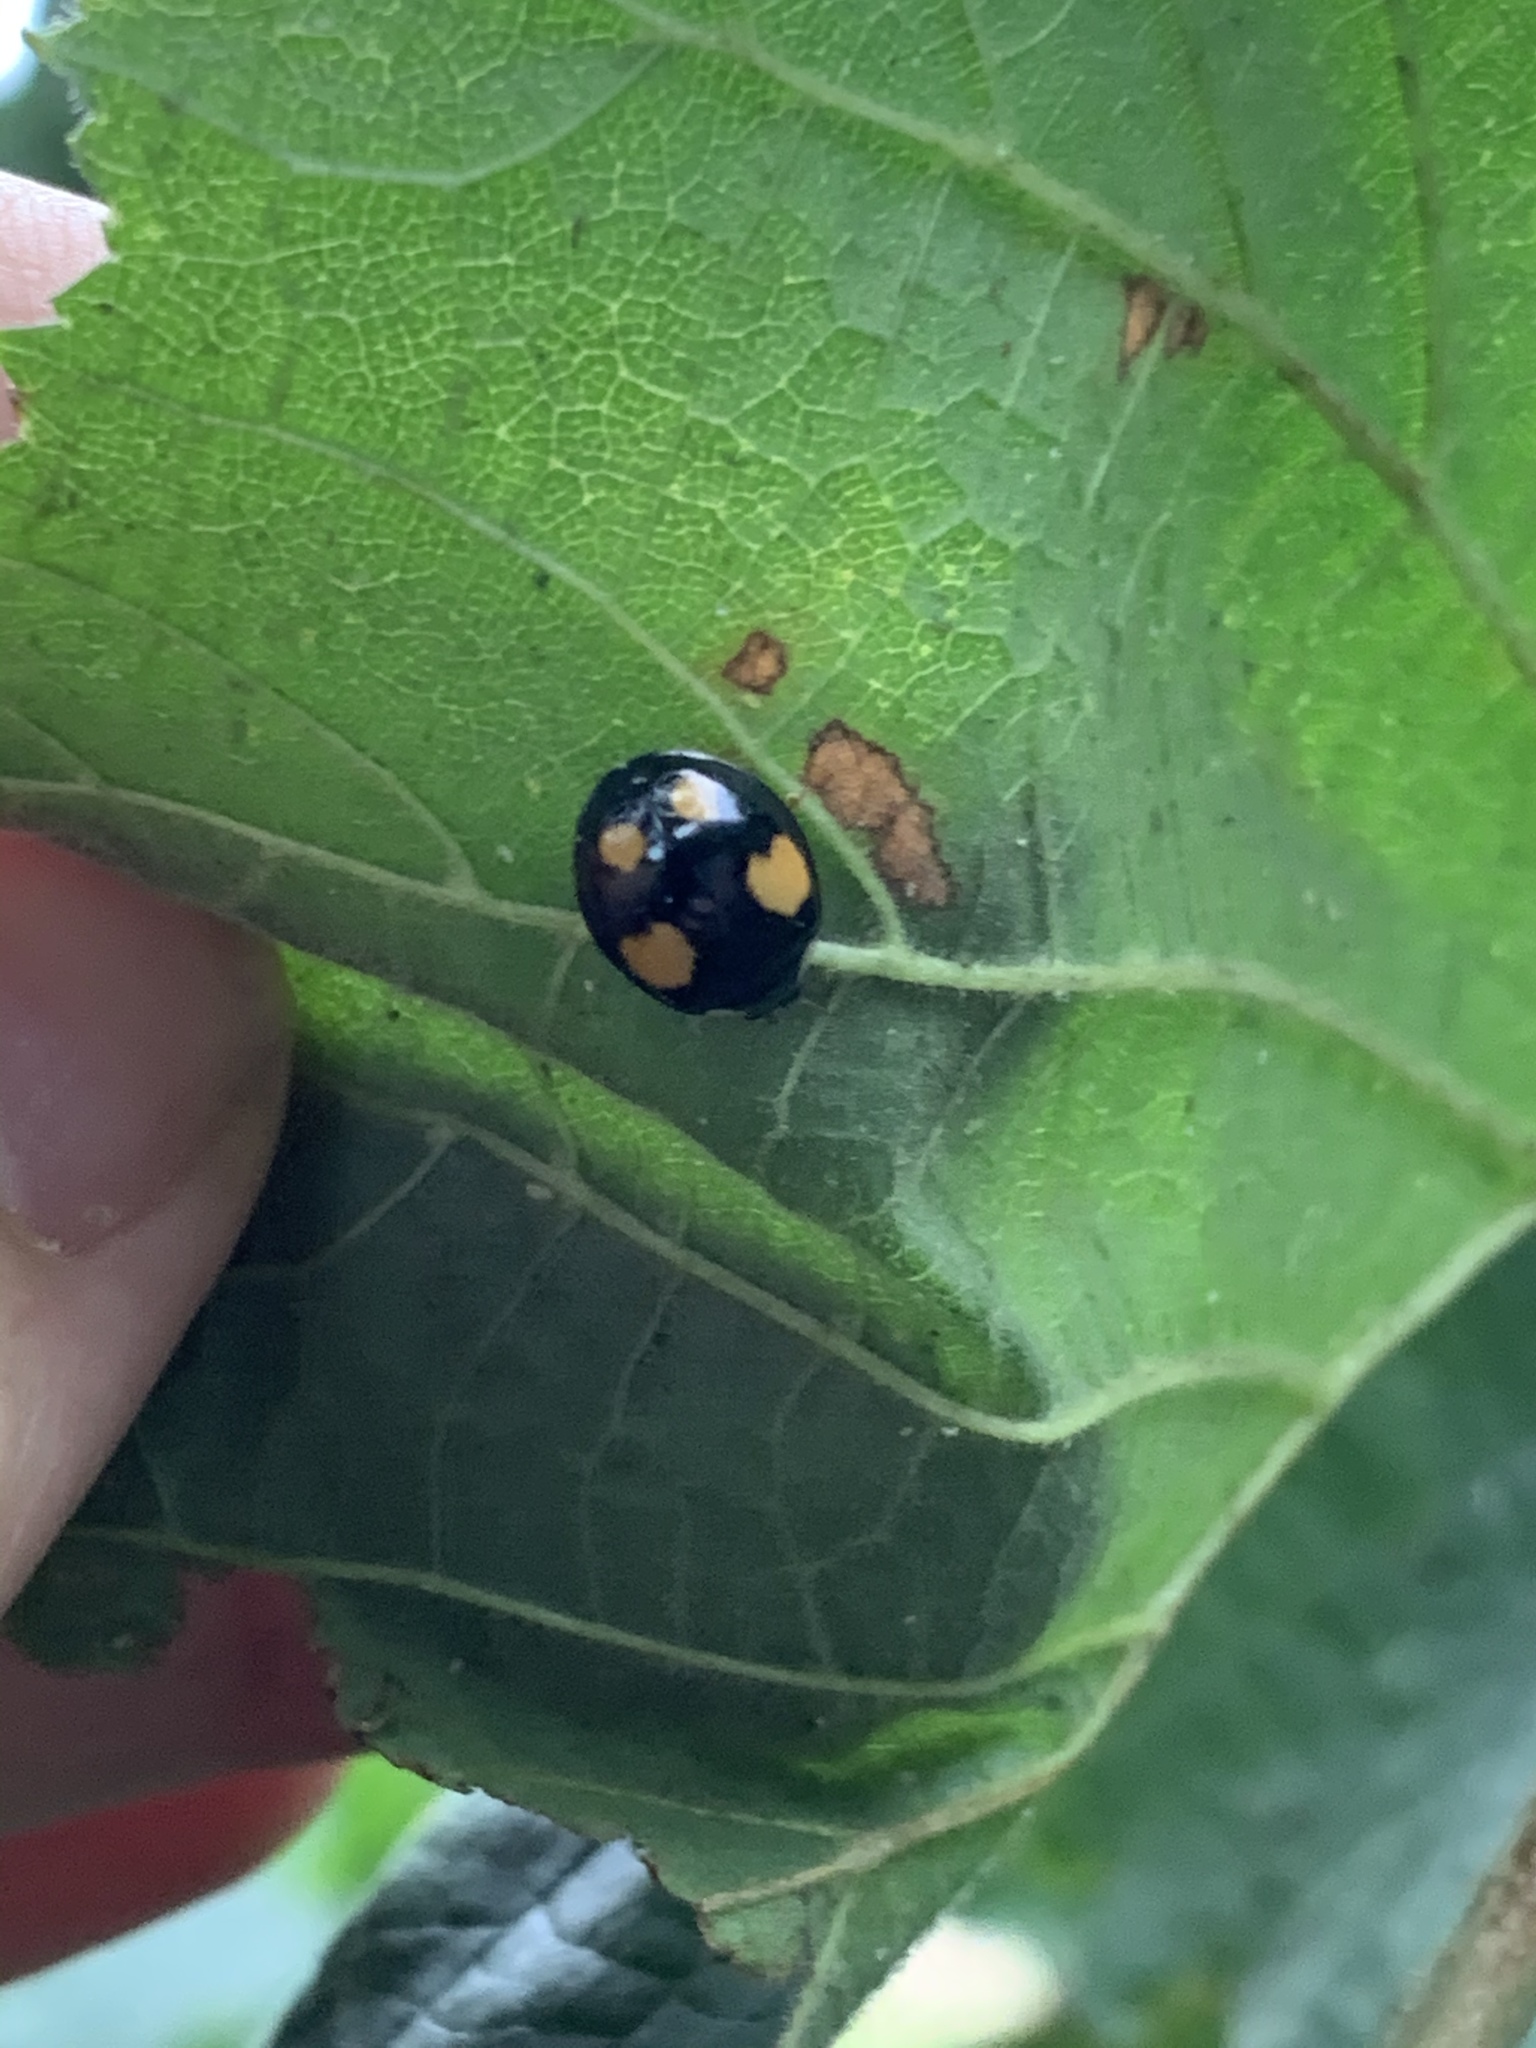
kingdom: Animalia
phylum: Arthropoda
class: Insecta
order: Coleoptera
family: Coccinellidae
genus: Harmonia
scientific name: Harmonia axyridis
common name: Harlequin ladybird
